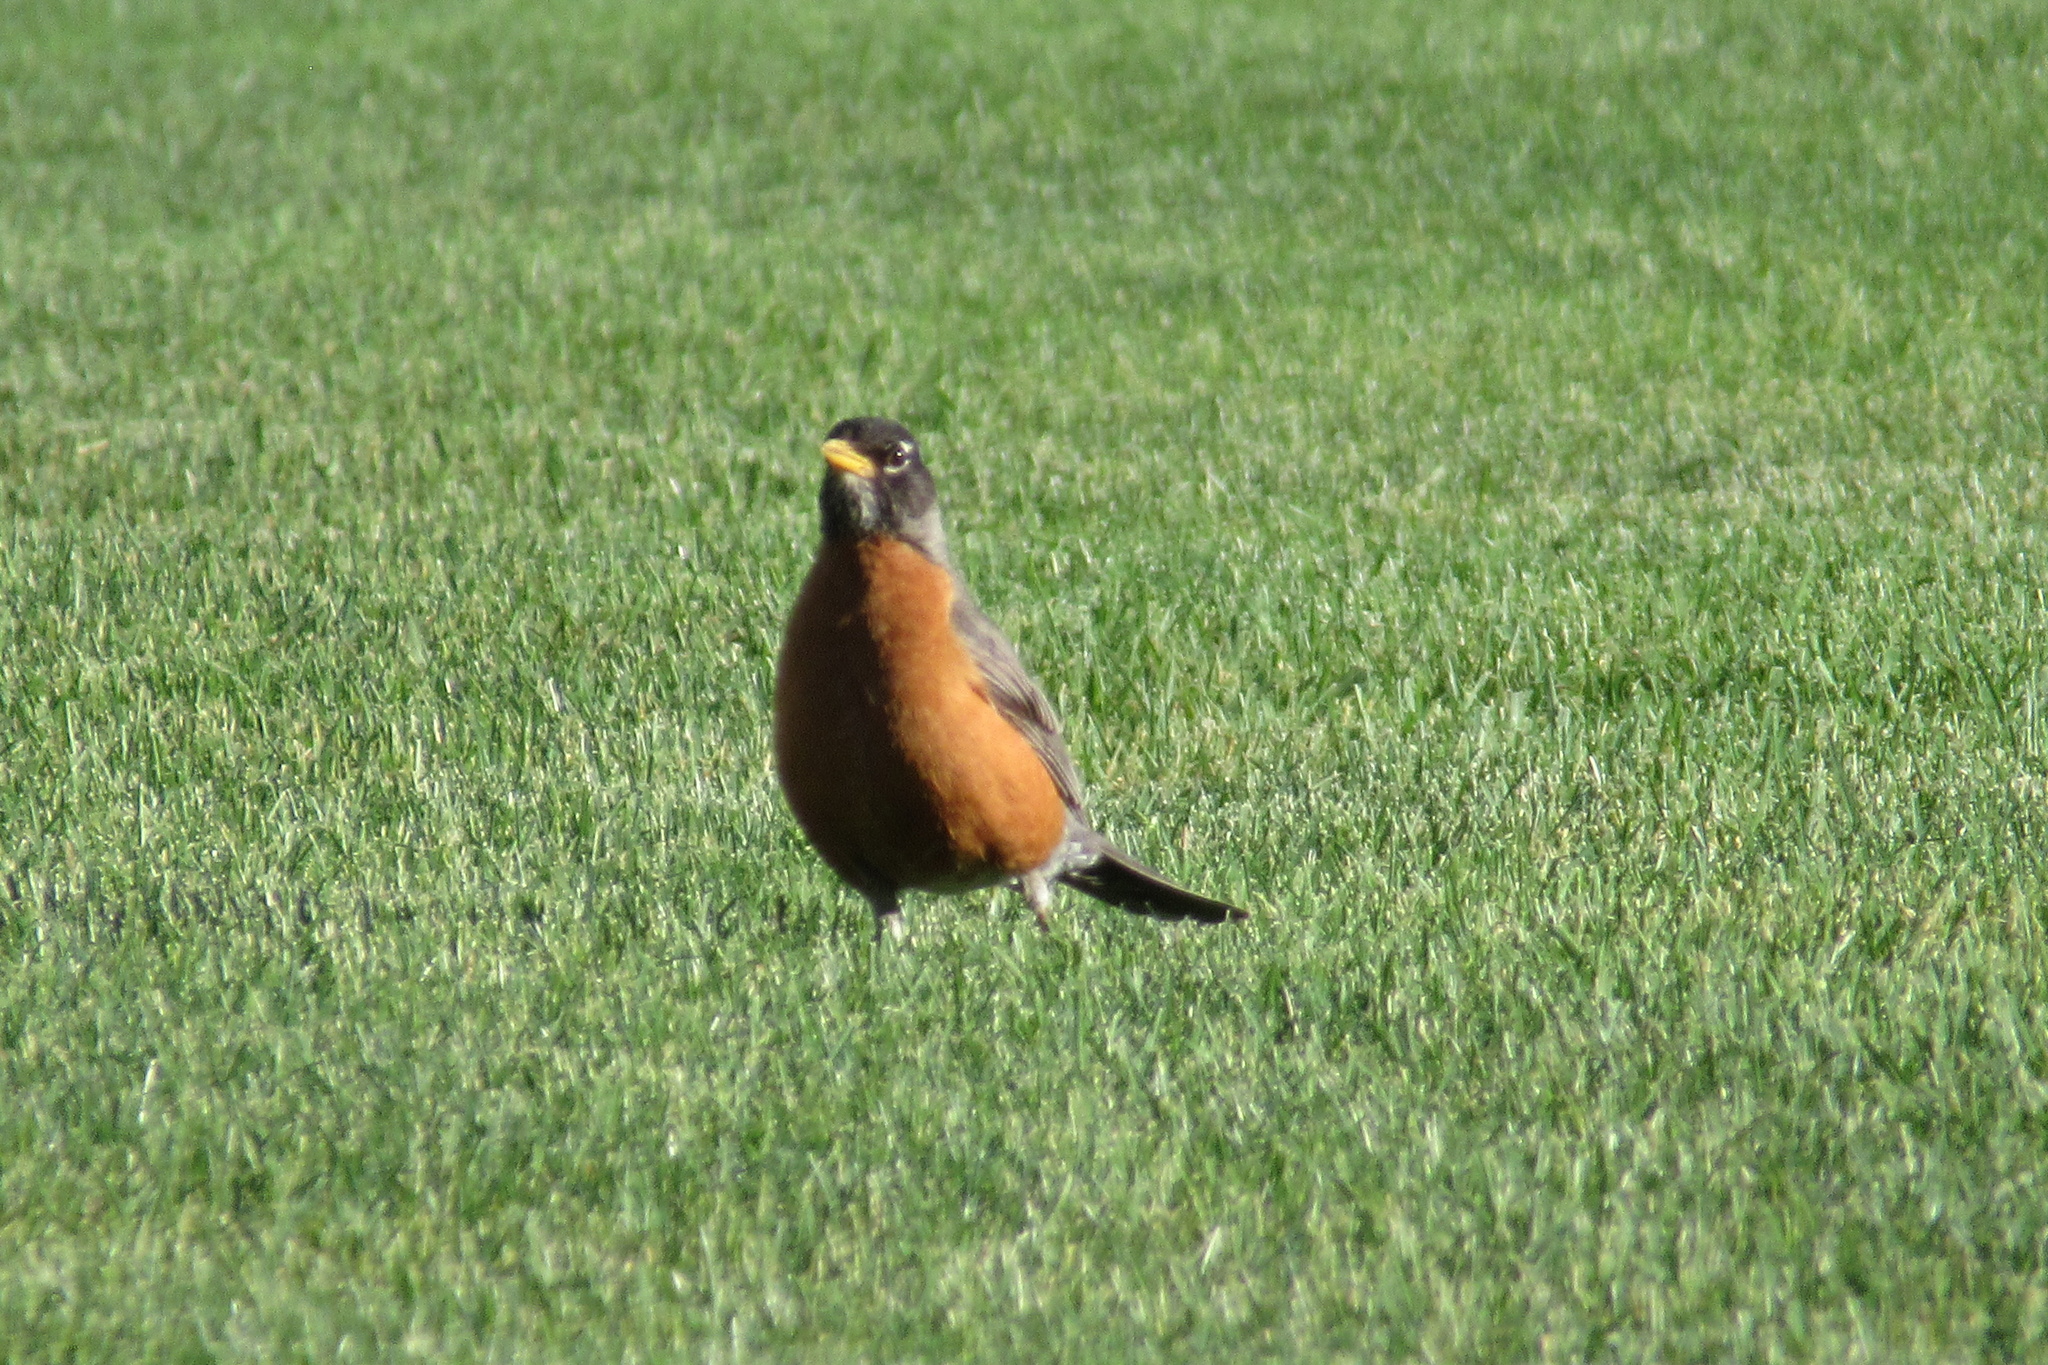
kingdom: Animalia
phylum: Chordata
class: Aves
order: Passeriformes
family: Turdidae
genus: Turdus
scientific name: Turdus migratorius
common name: American robin
